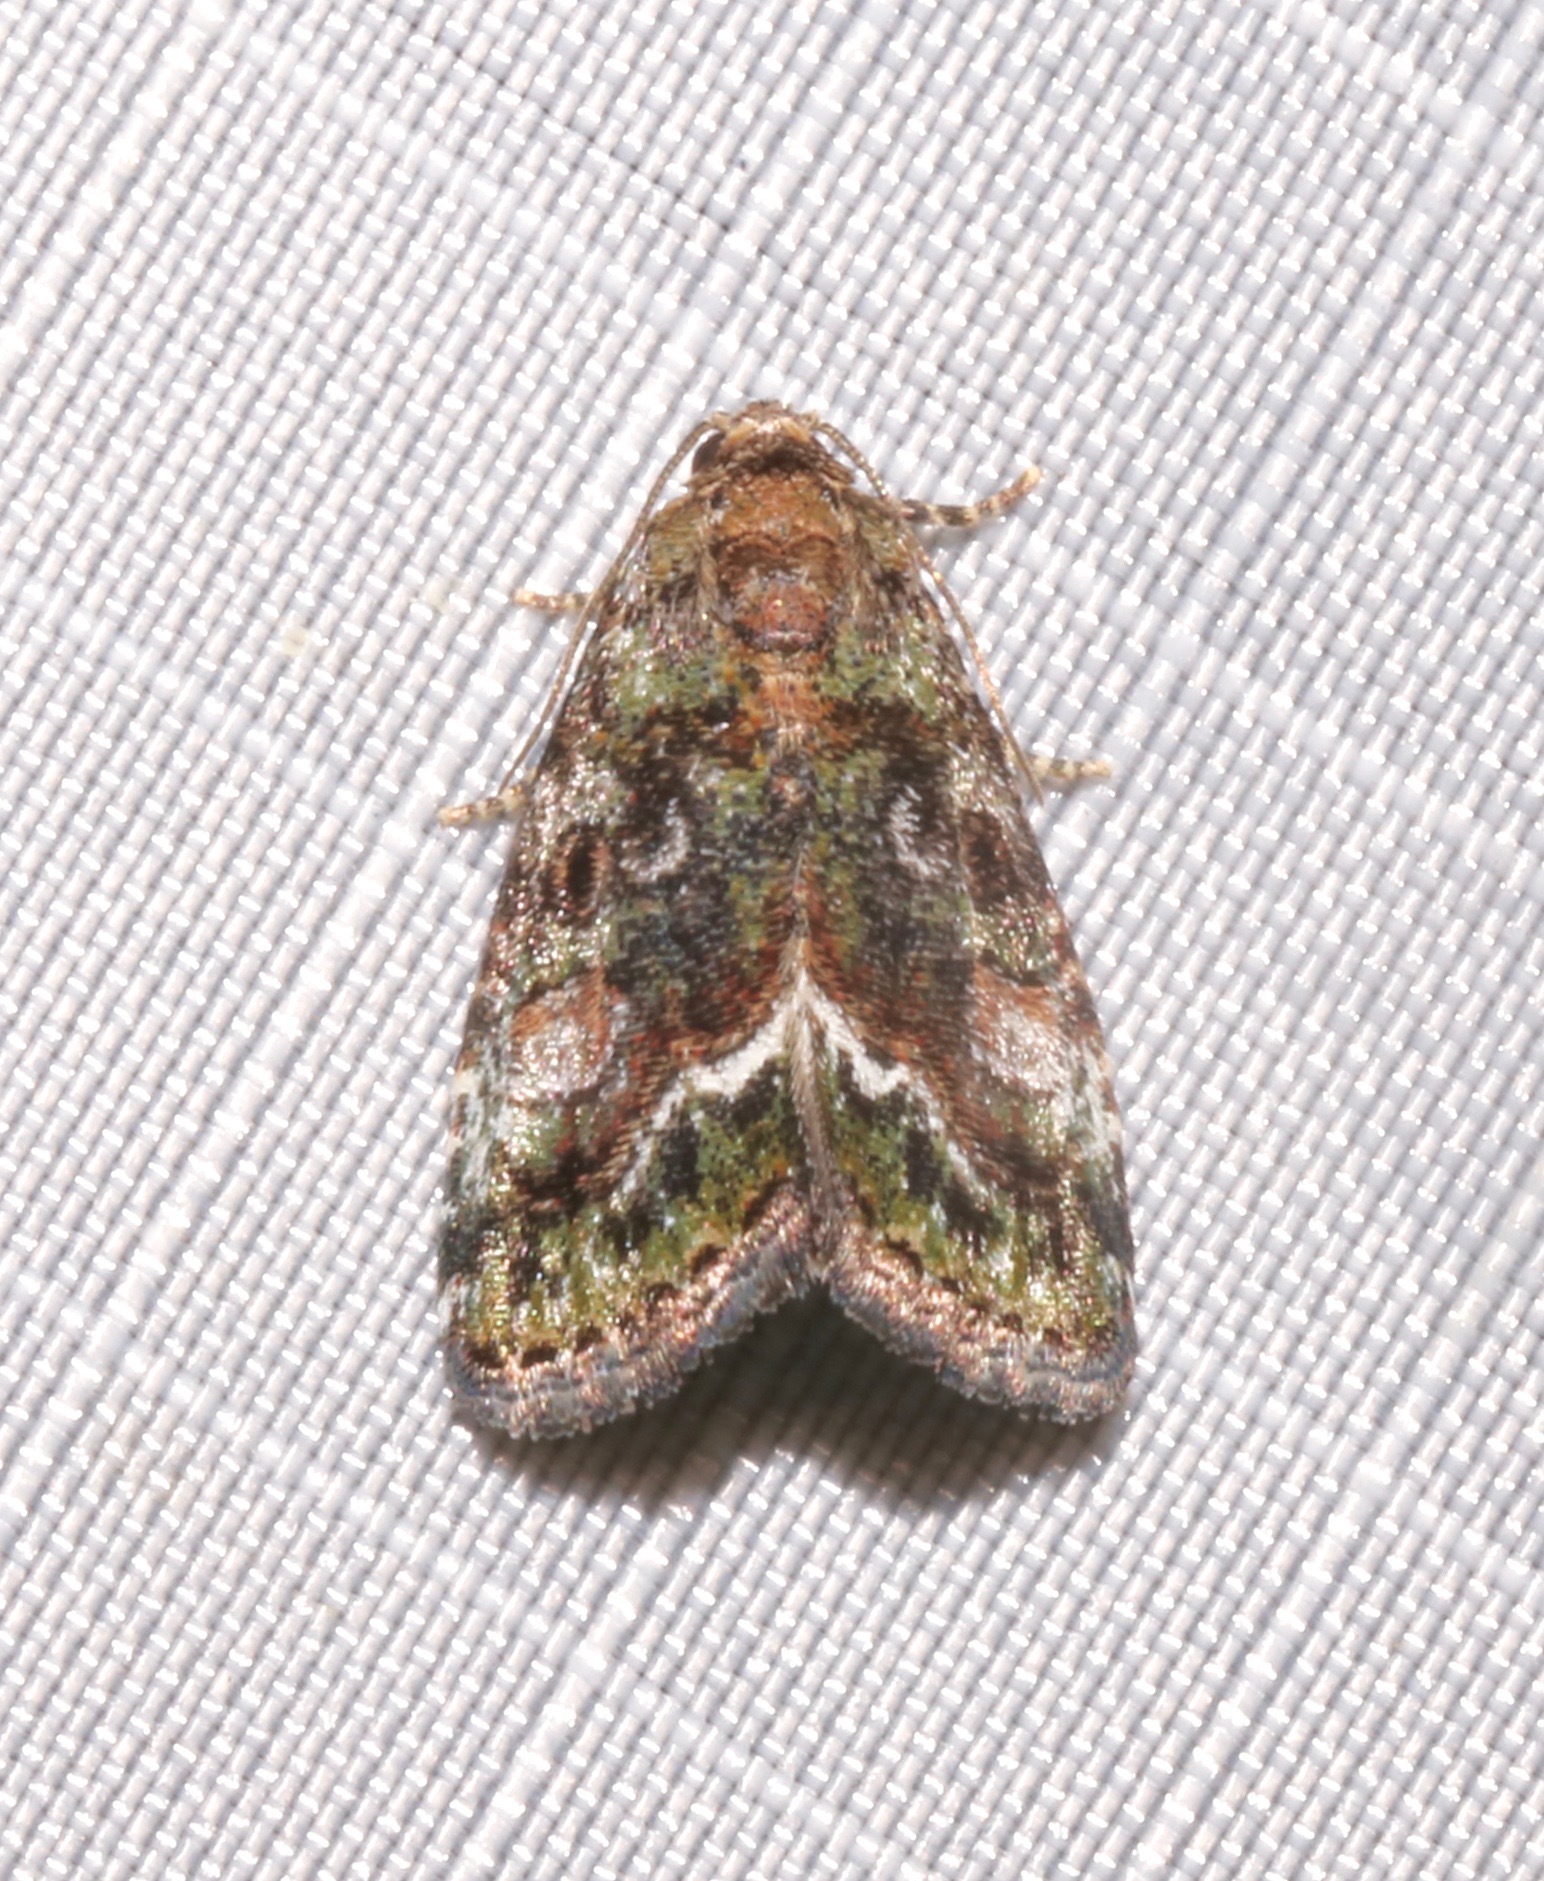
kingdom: Animalia
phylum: Arthropoda
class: Insecta
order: Lepidoptera
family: Noctuidae
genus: Lithacodia
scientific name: Lithacodia musta
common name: Small mossy glyph
